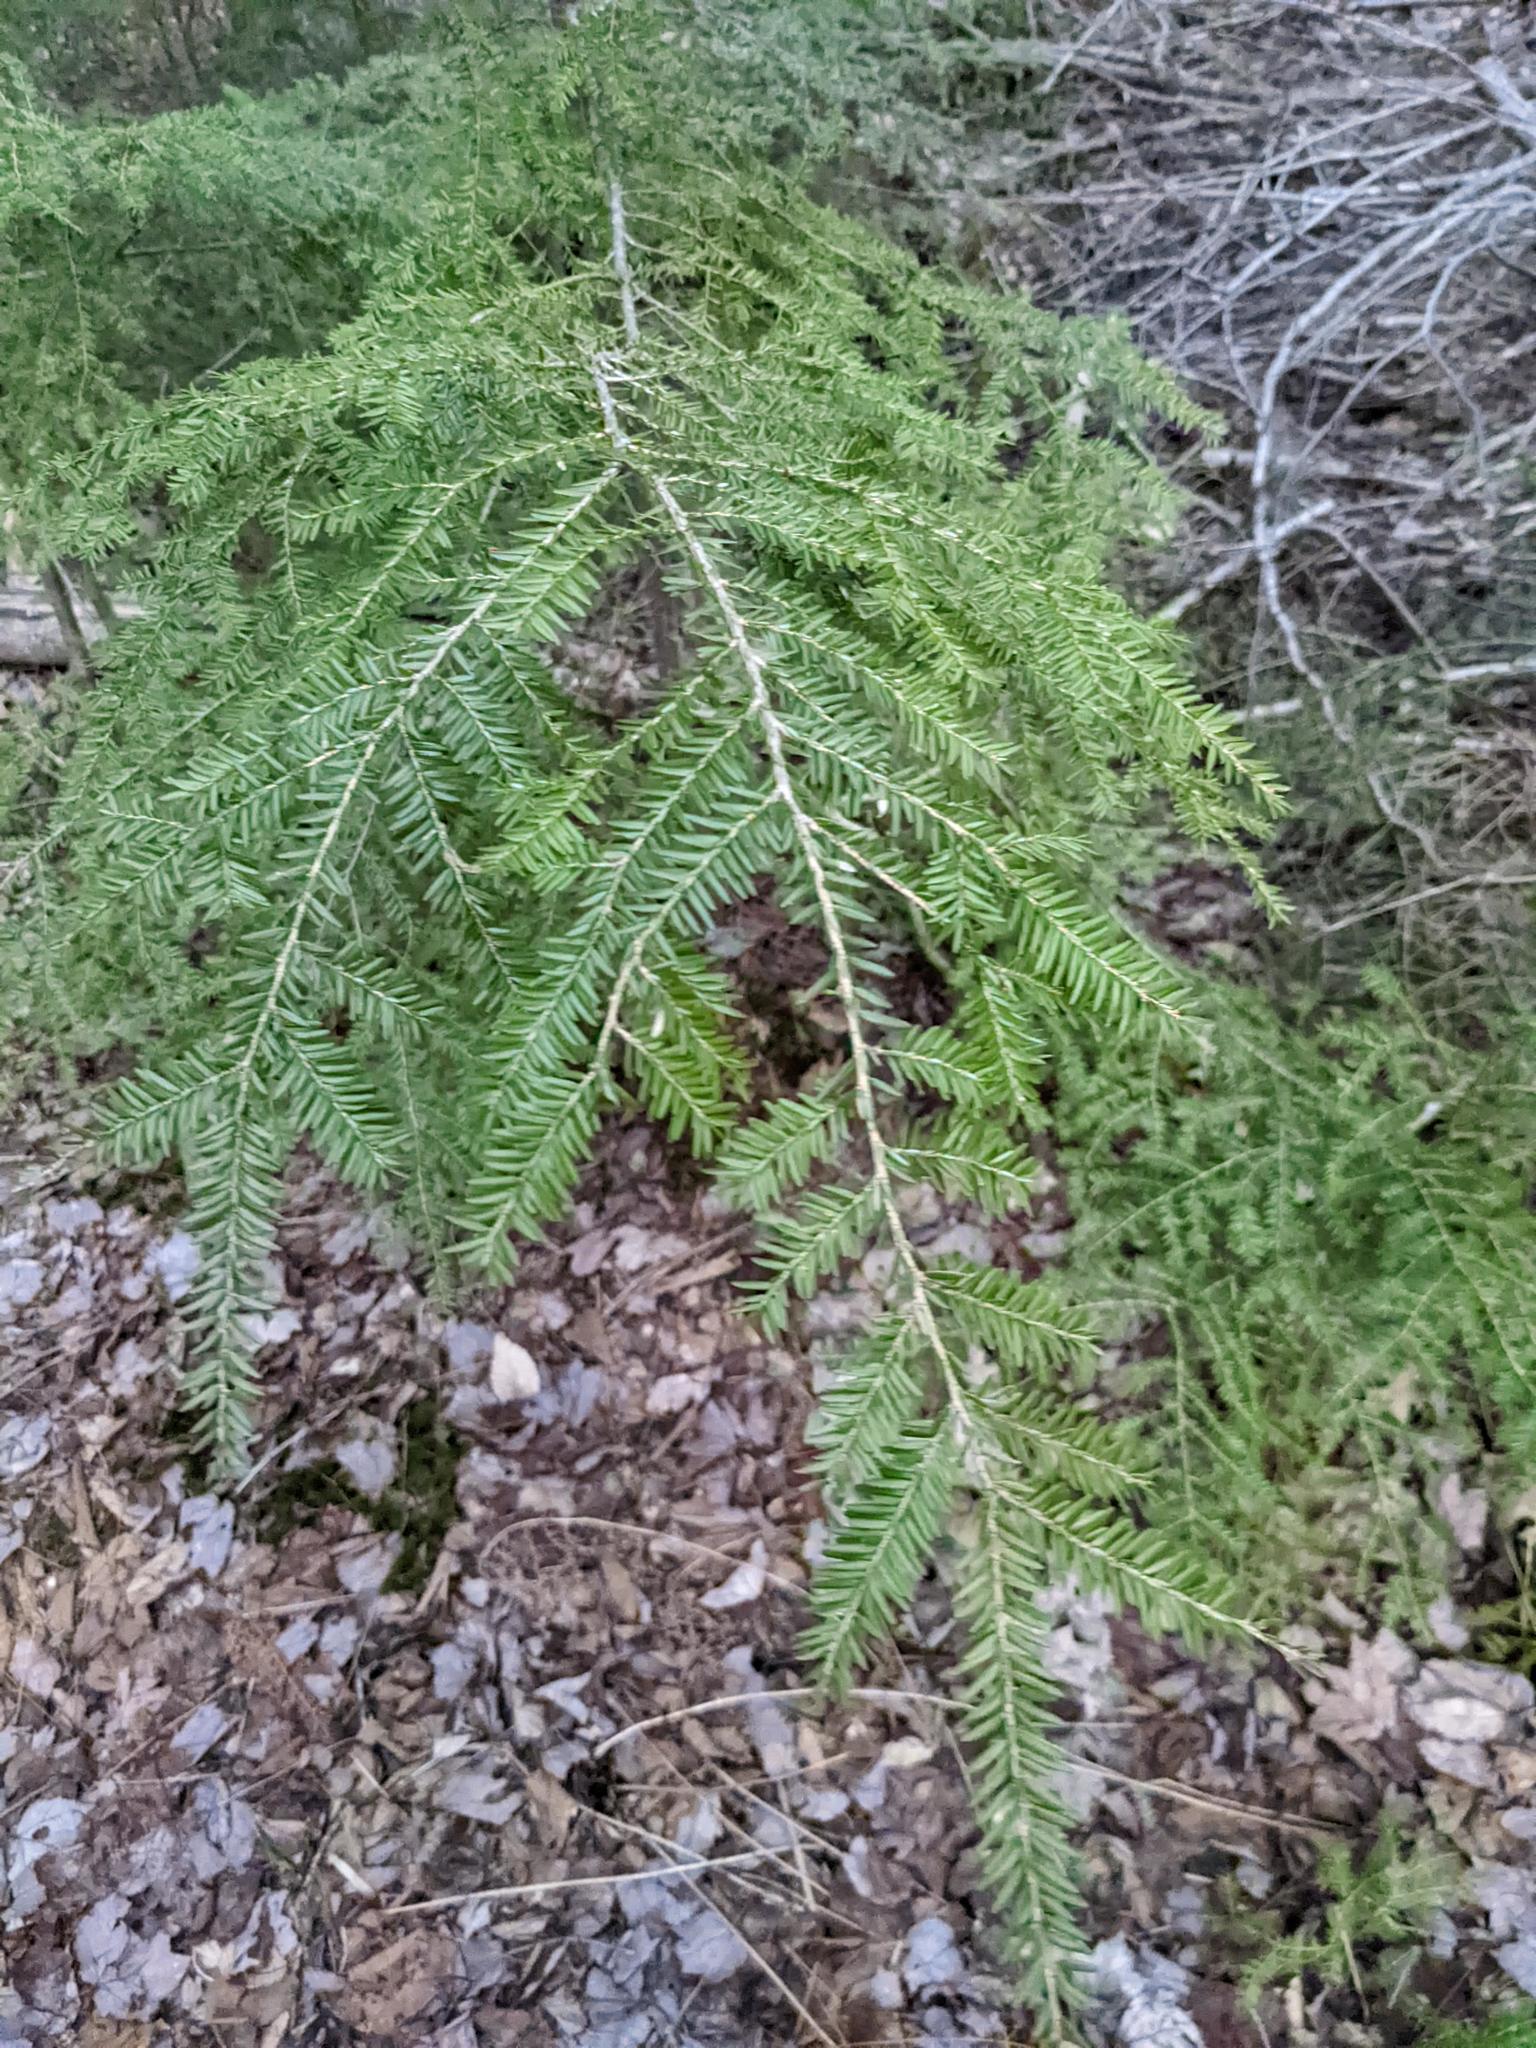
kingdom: Plantae
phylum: Tracheophyta
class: Pinopsida
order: Pinales
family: Pinaceae
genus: Tsuga
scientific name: Tsuga canadensis
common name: Eastern hemlock
